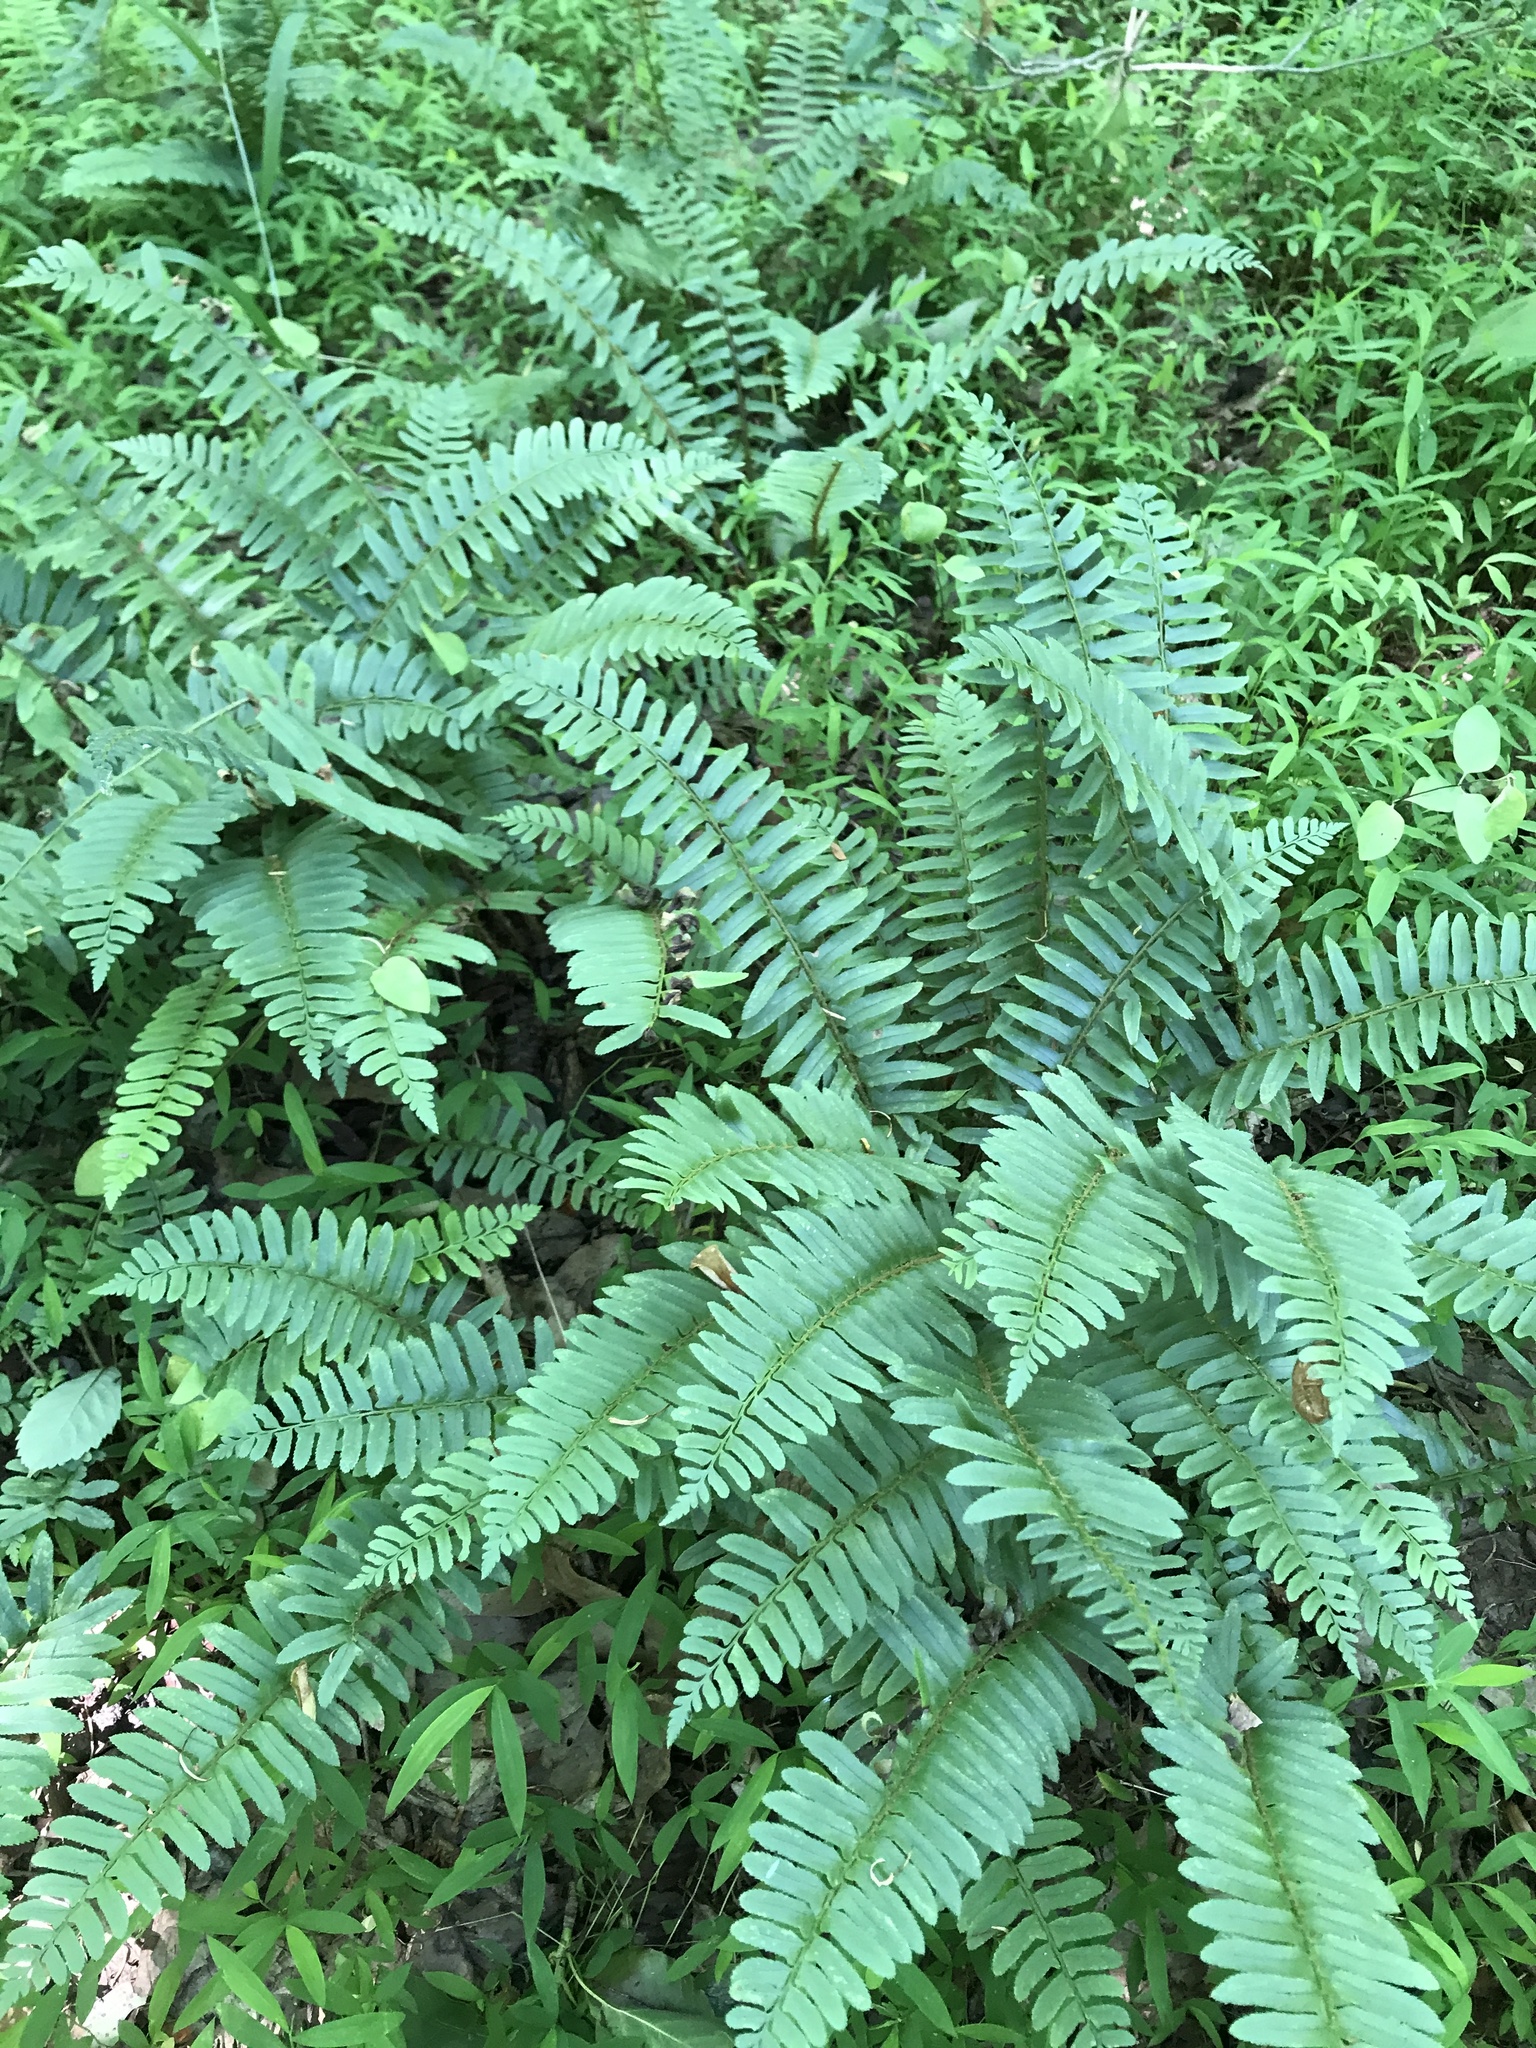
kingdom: Plantae
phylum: Tracheophyta
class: Polypodiopsida
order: Polypodiales
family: Dryopteridaceae
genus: Polystichum
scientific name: Polystichum acrostichoides
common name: Christmas fern
